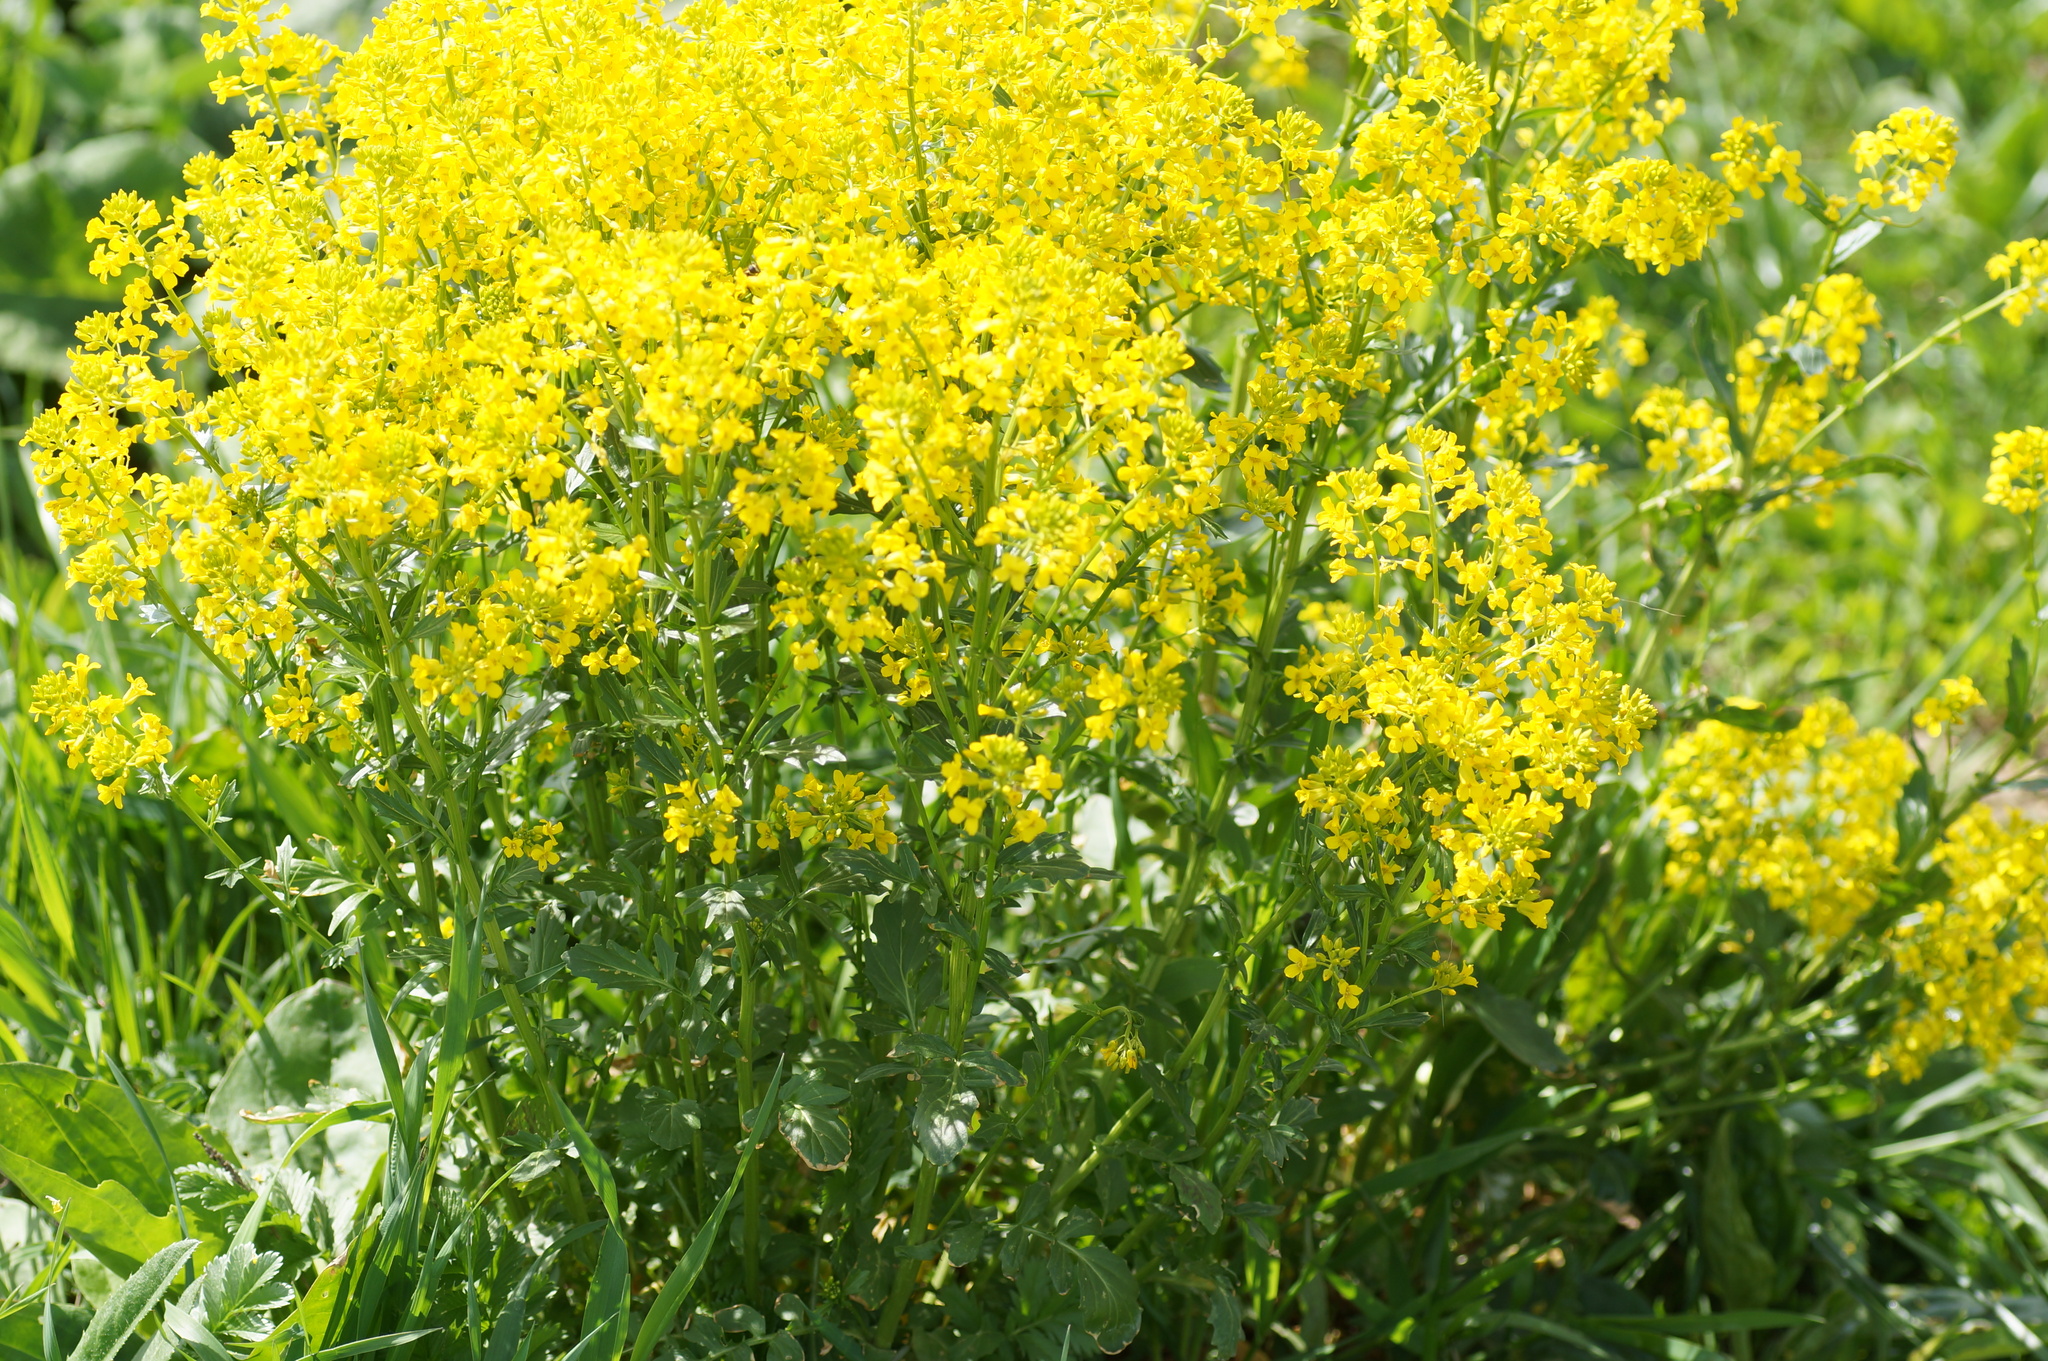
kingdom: Plantae
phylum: Tracheophyta
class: Magnoliopsida
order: Brassicales
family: Brassicaceae
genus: Barbarea
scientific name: Barbarea vulgaris
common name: Cressy-greens
